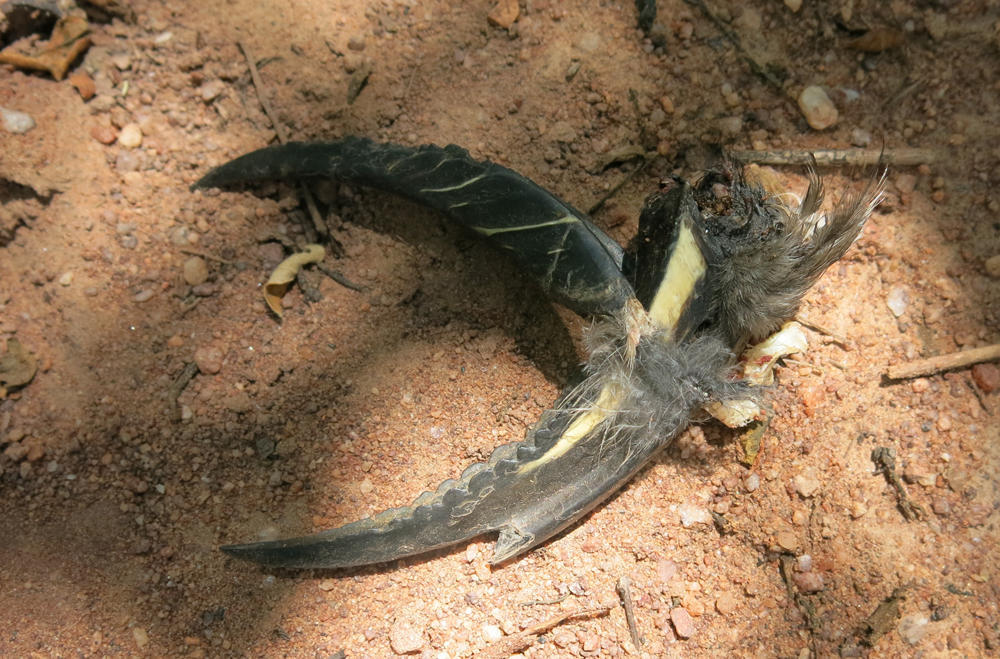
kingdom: Animalia
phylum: Chordata
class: Aves
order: Bucerotiformes
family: Bucerotidae
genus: Lophoceros
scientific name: Lophoceros nasutus
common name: African grey hornbill
